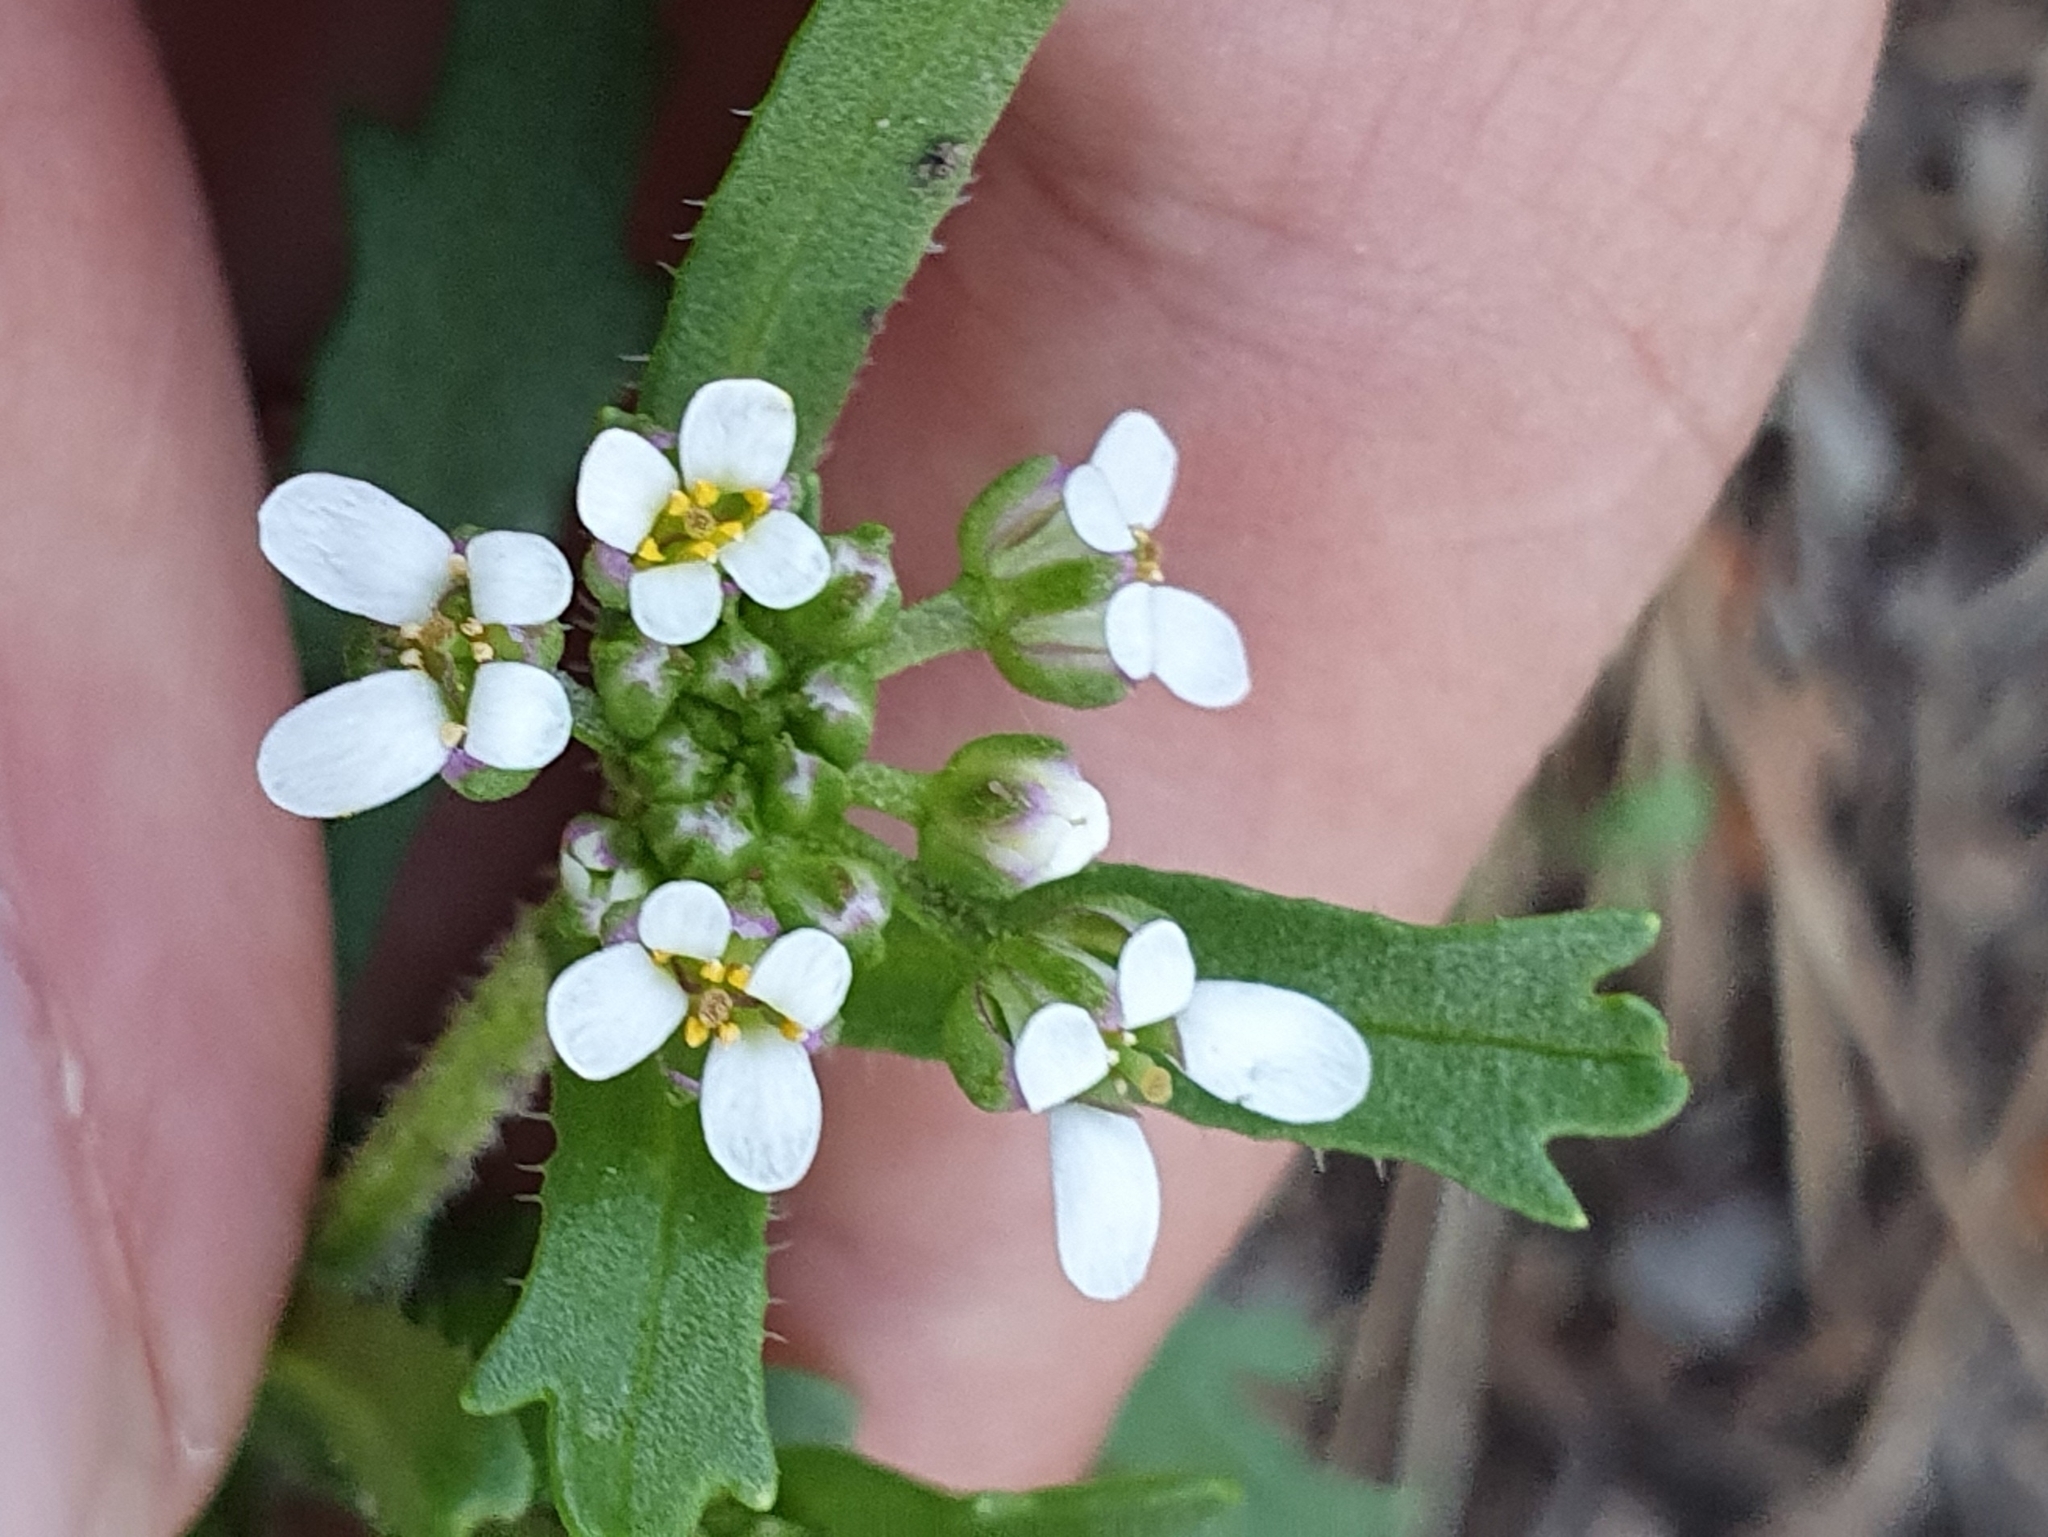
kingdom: Plantae
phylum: Tracheophyta
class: Magnoliopsida
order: Brassicales
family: Brassicaceae
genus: Iberis
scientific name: Iberis odorata
